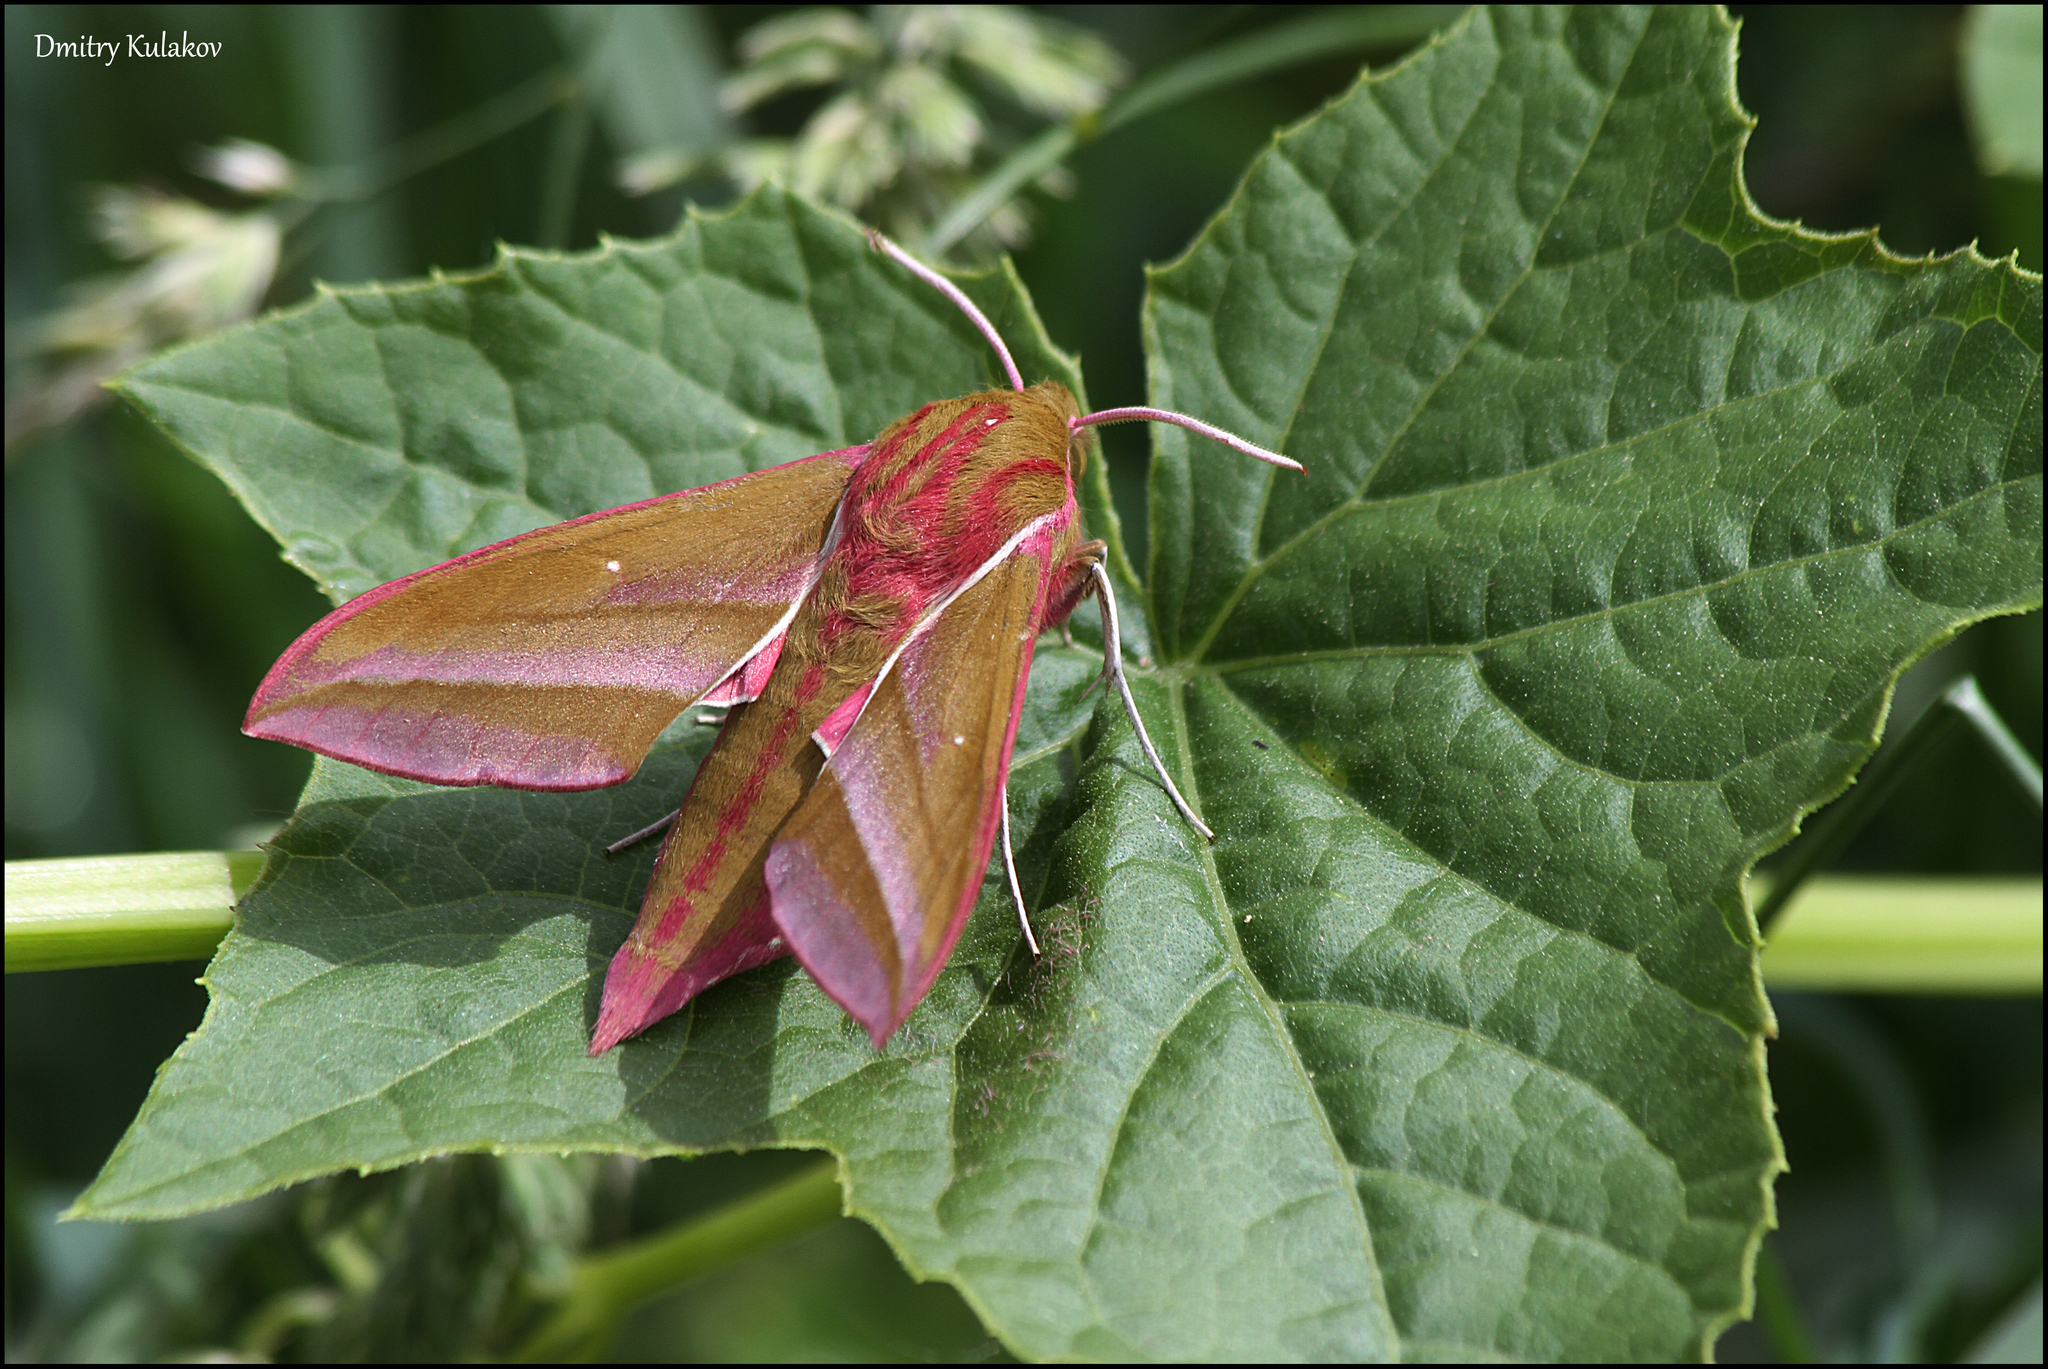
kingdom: Animalia
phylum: Arthropoda
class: Insecta
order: Lepidoptera
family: Sphingidae
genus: Deilephila
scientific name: Deilephila elpenor
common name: Elephant hawk-moth
